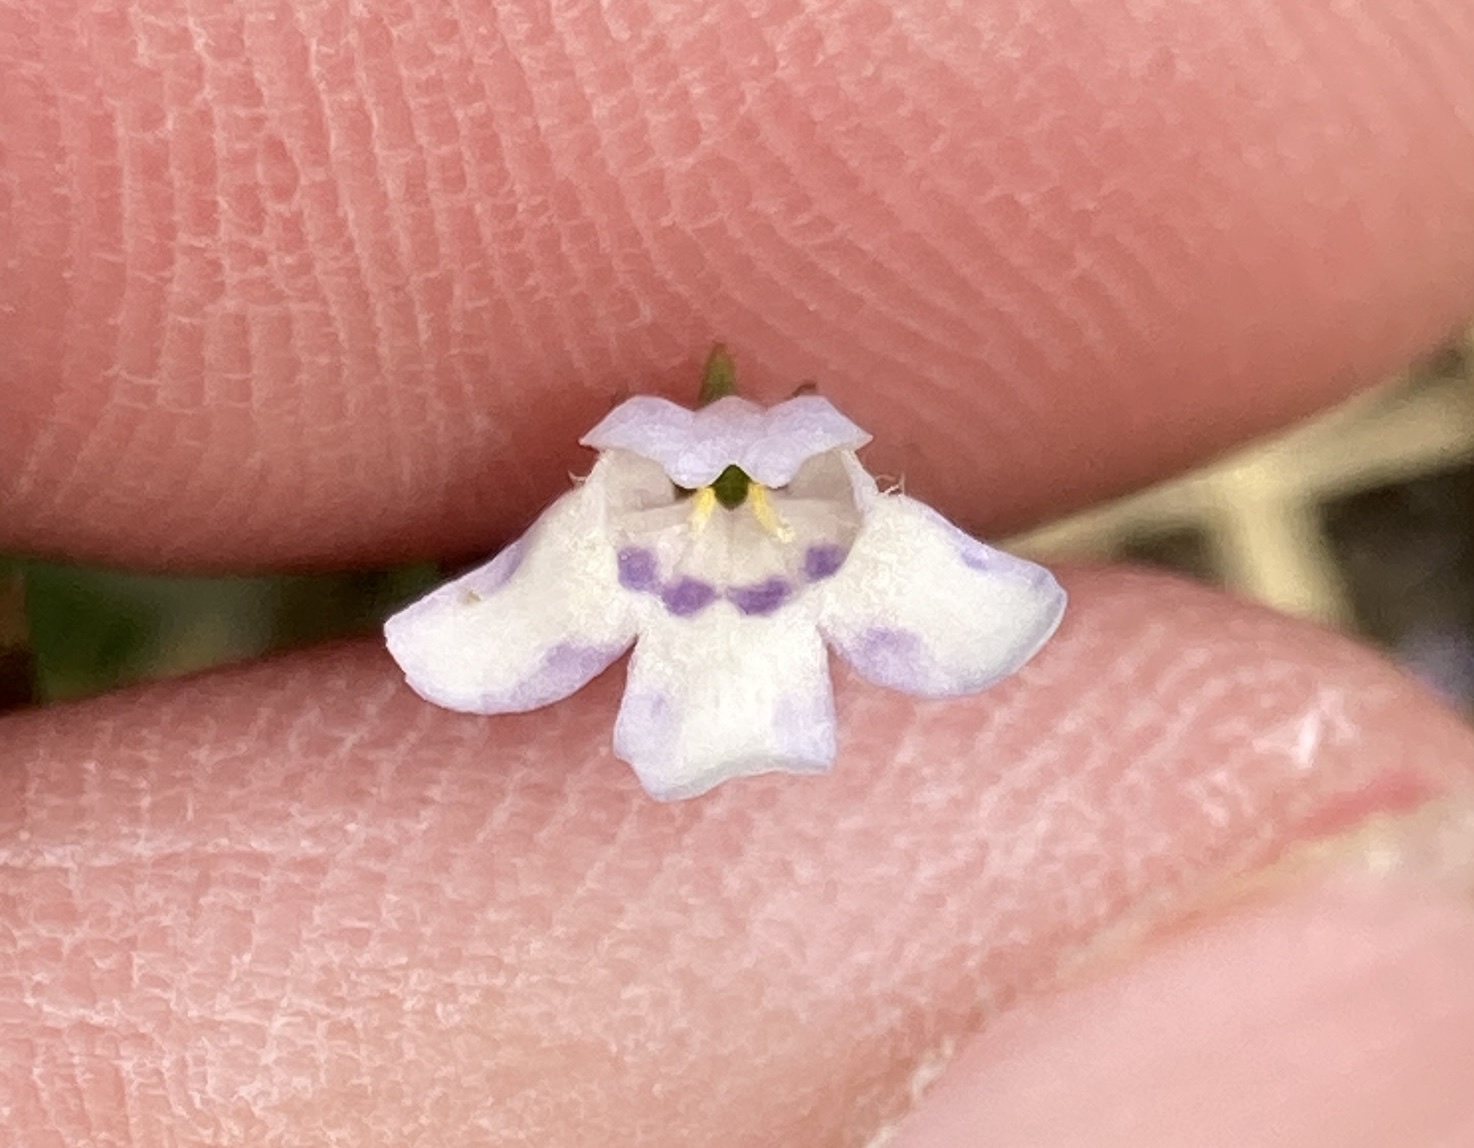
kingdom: Plantae
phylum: Tracheophyta
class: Magnoliopsida
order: Lamiales
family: Linderniaceae
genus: Lindernia
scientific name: Lindernia dubia
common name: Annual false pimpernel
